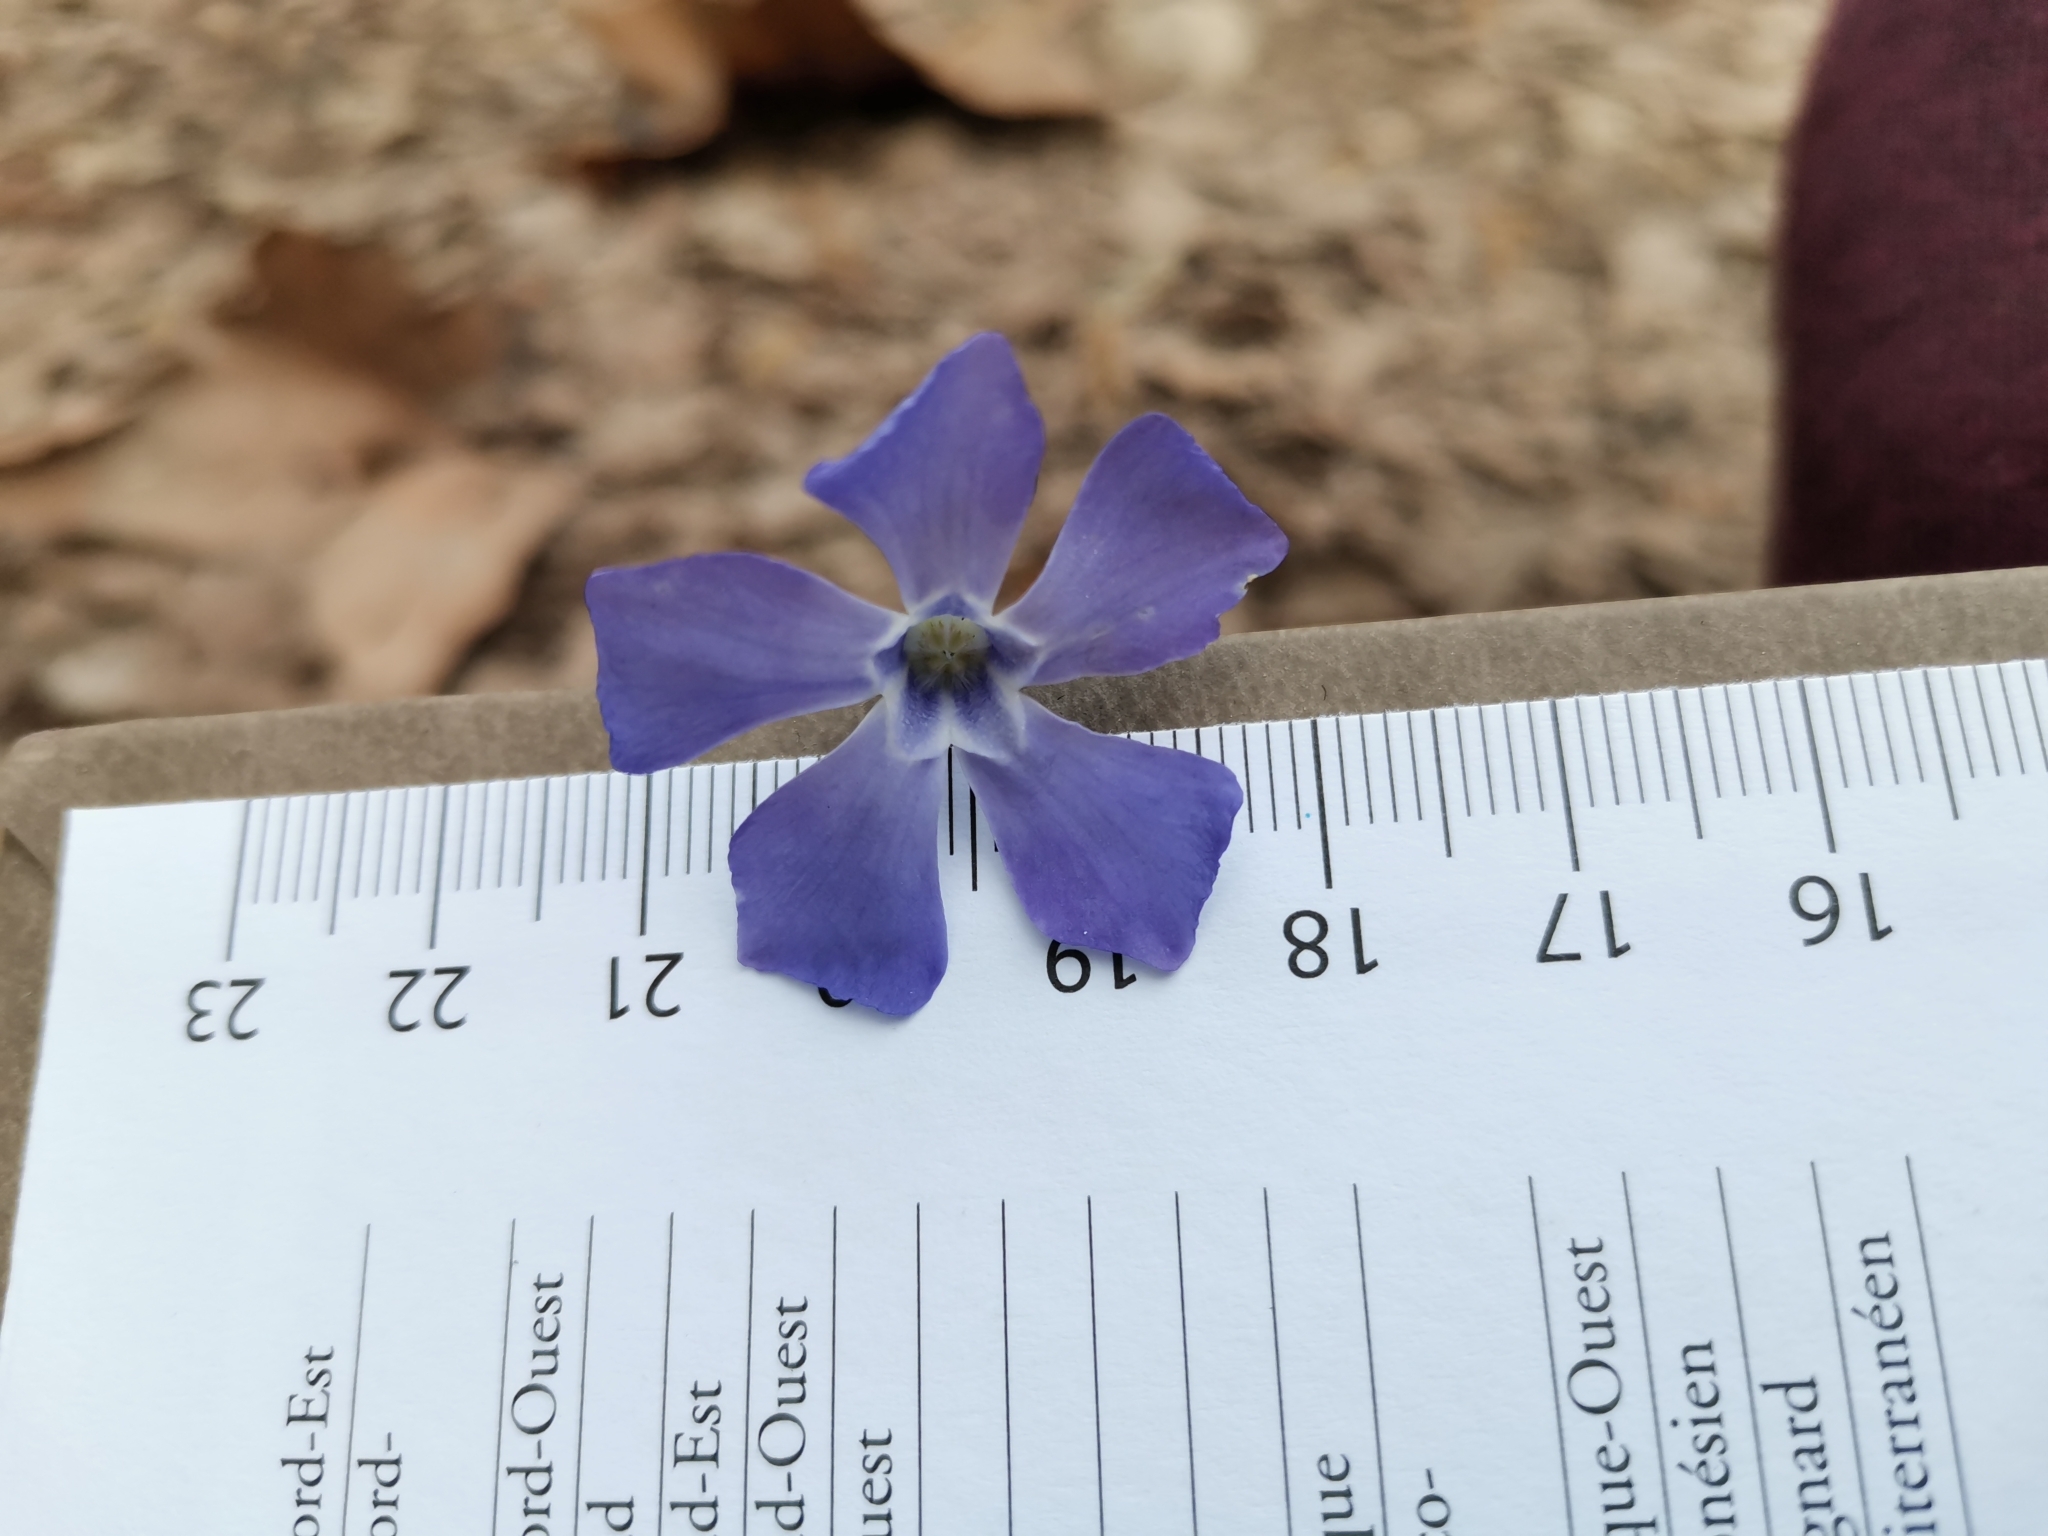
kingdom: Plantae
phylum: Tracheophyta
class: Magnoliopsida
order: Gentianales
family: Apocynaceae
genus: Vinca
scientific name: Vinca minor
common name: Lesser periwinkle
